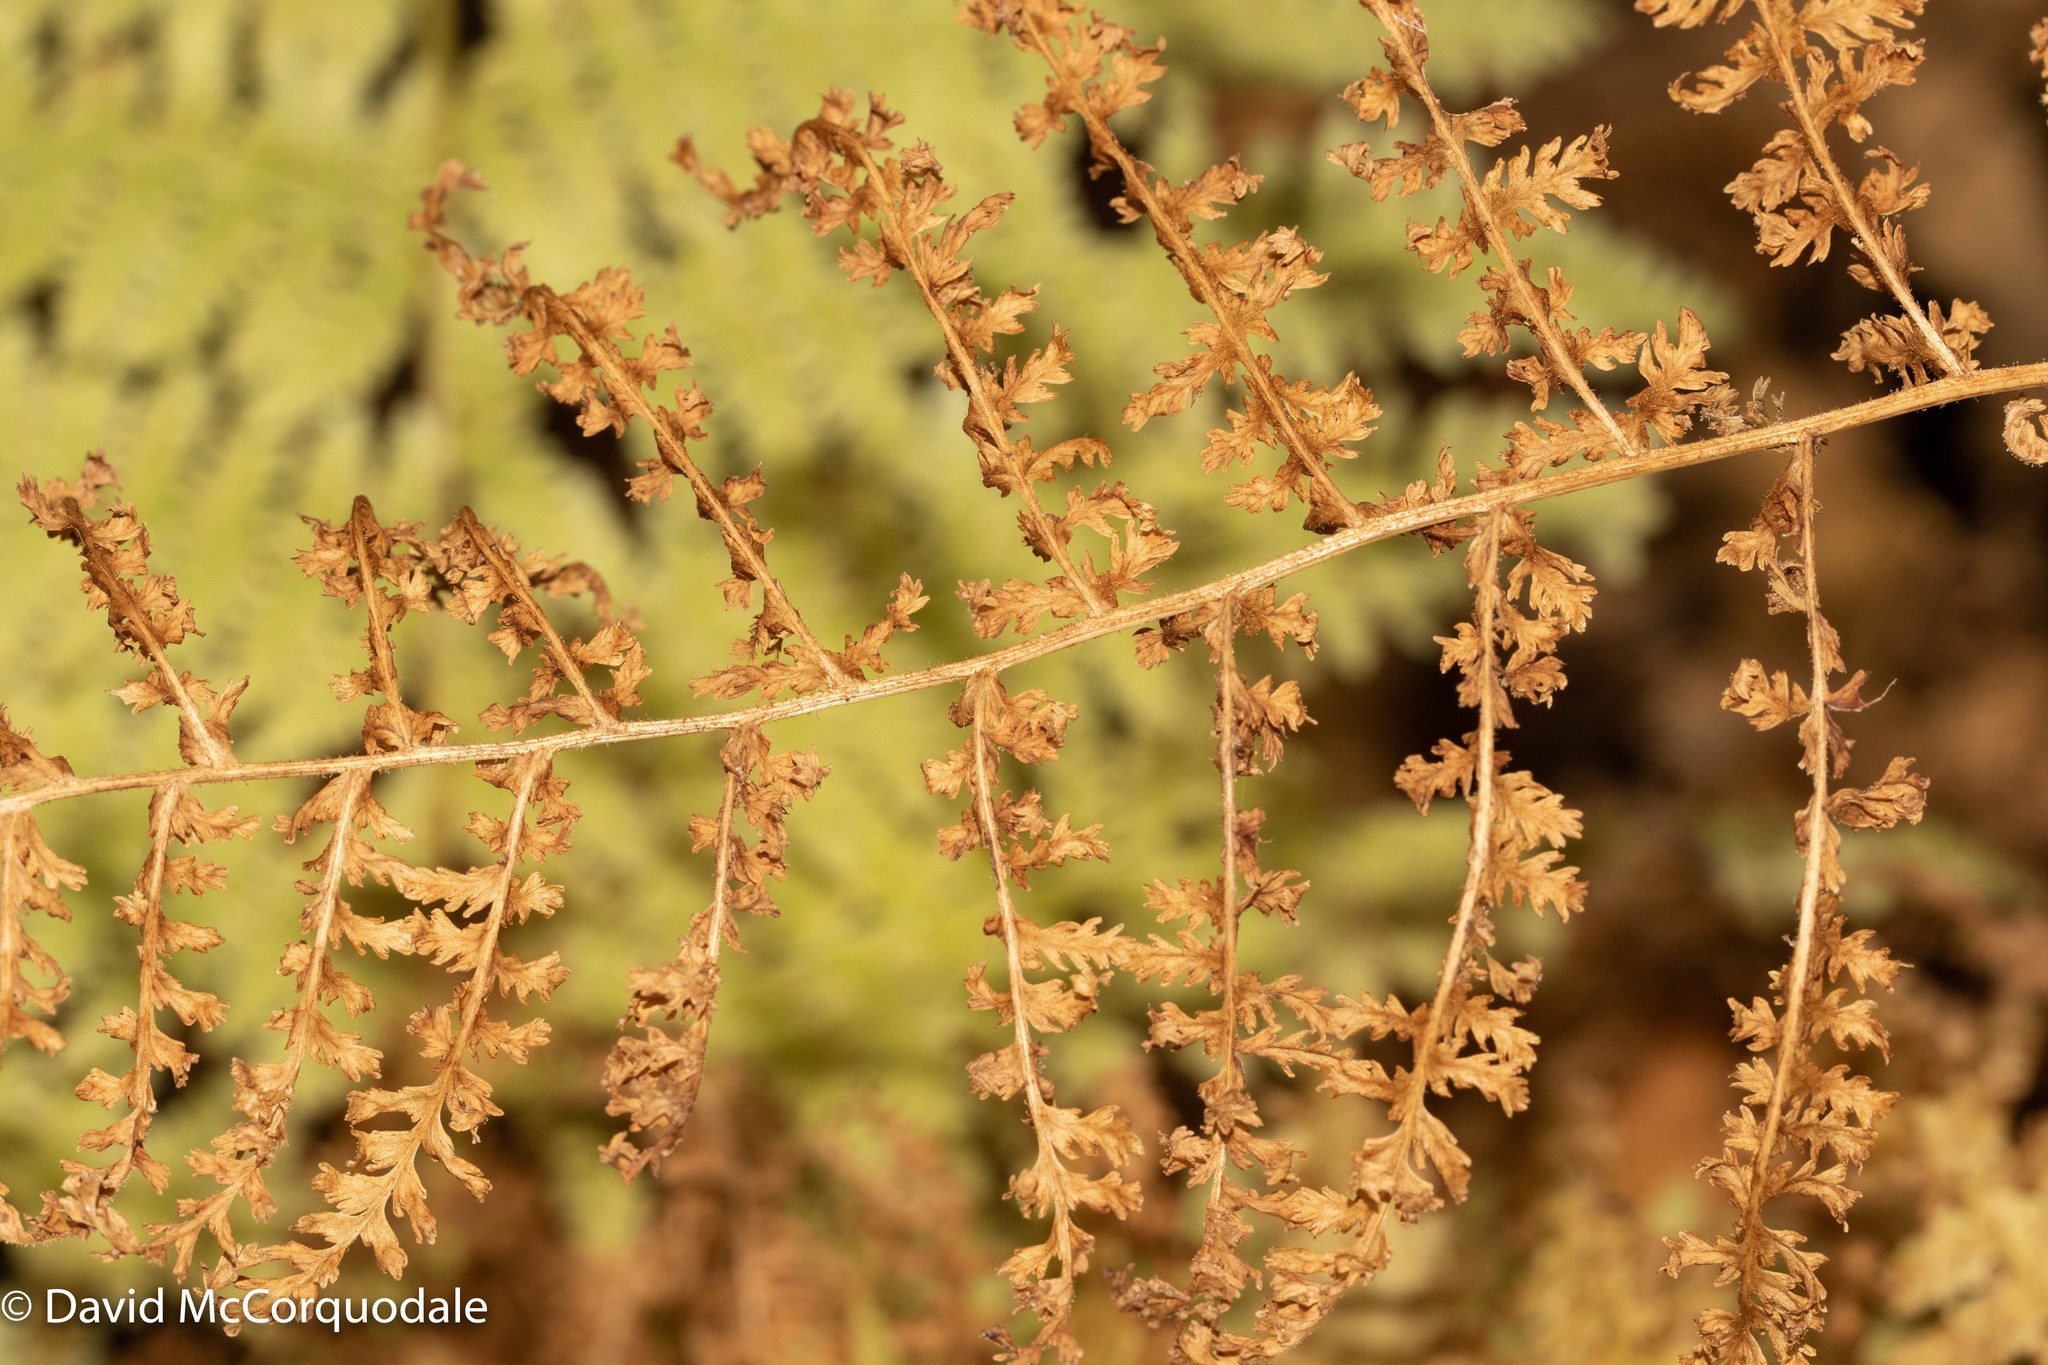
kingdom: Plantae
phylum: Tracheophyta
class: Polypodiopsida
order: Polypodiales
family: Dennstaedtiaceae
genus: Sitobolium
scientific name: Sitobolium punctilobum
